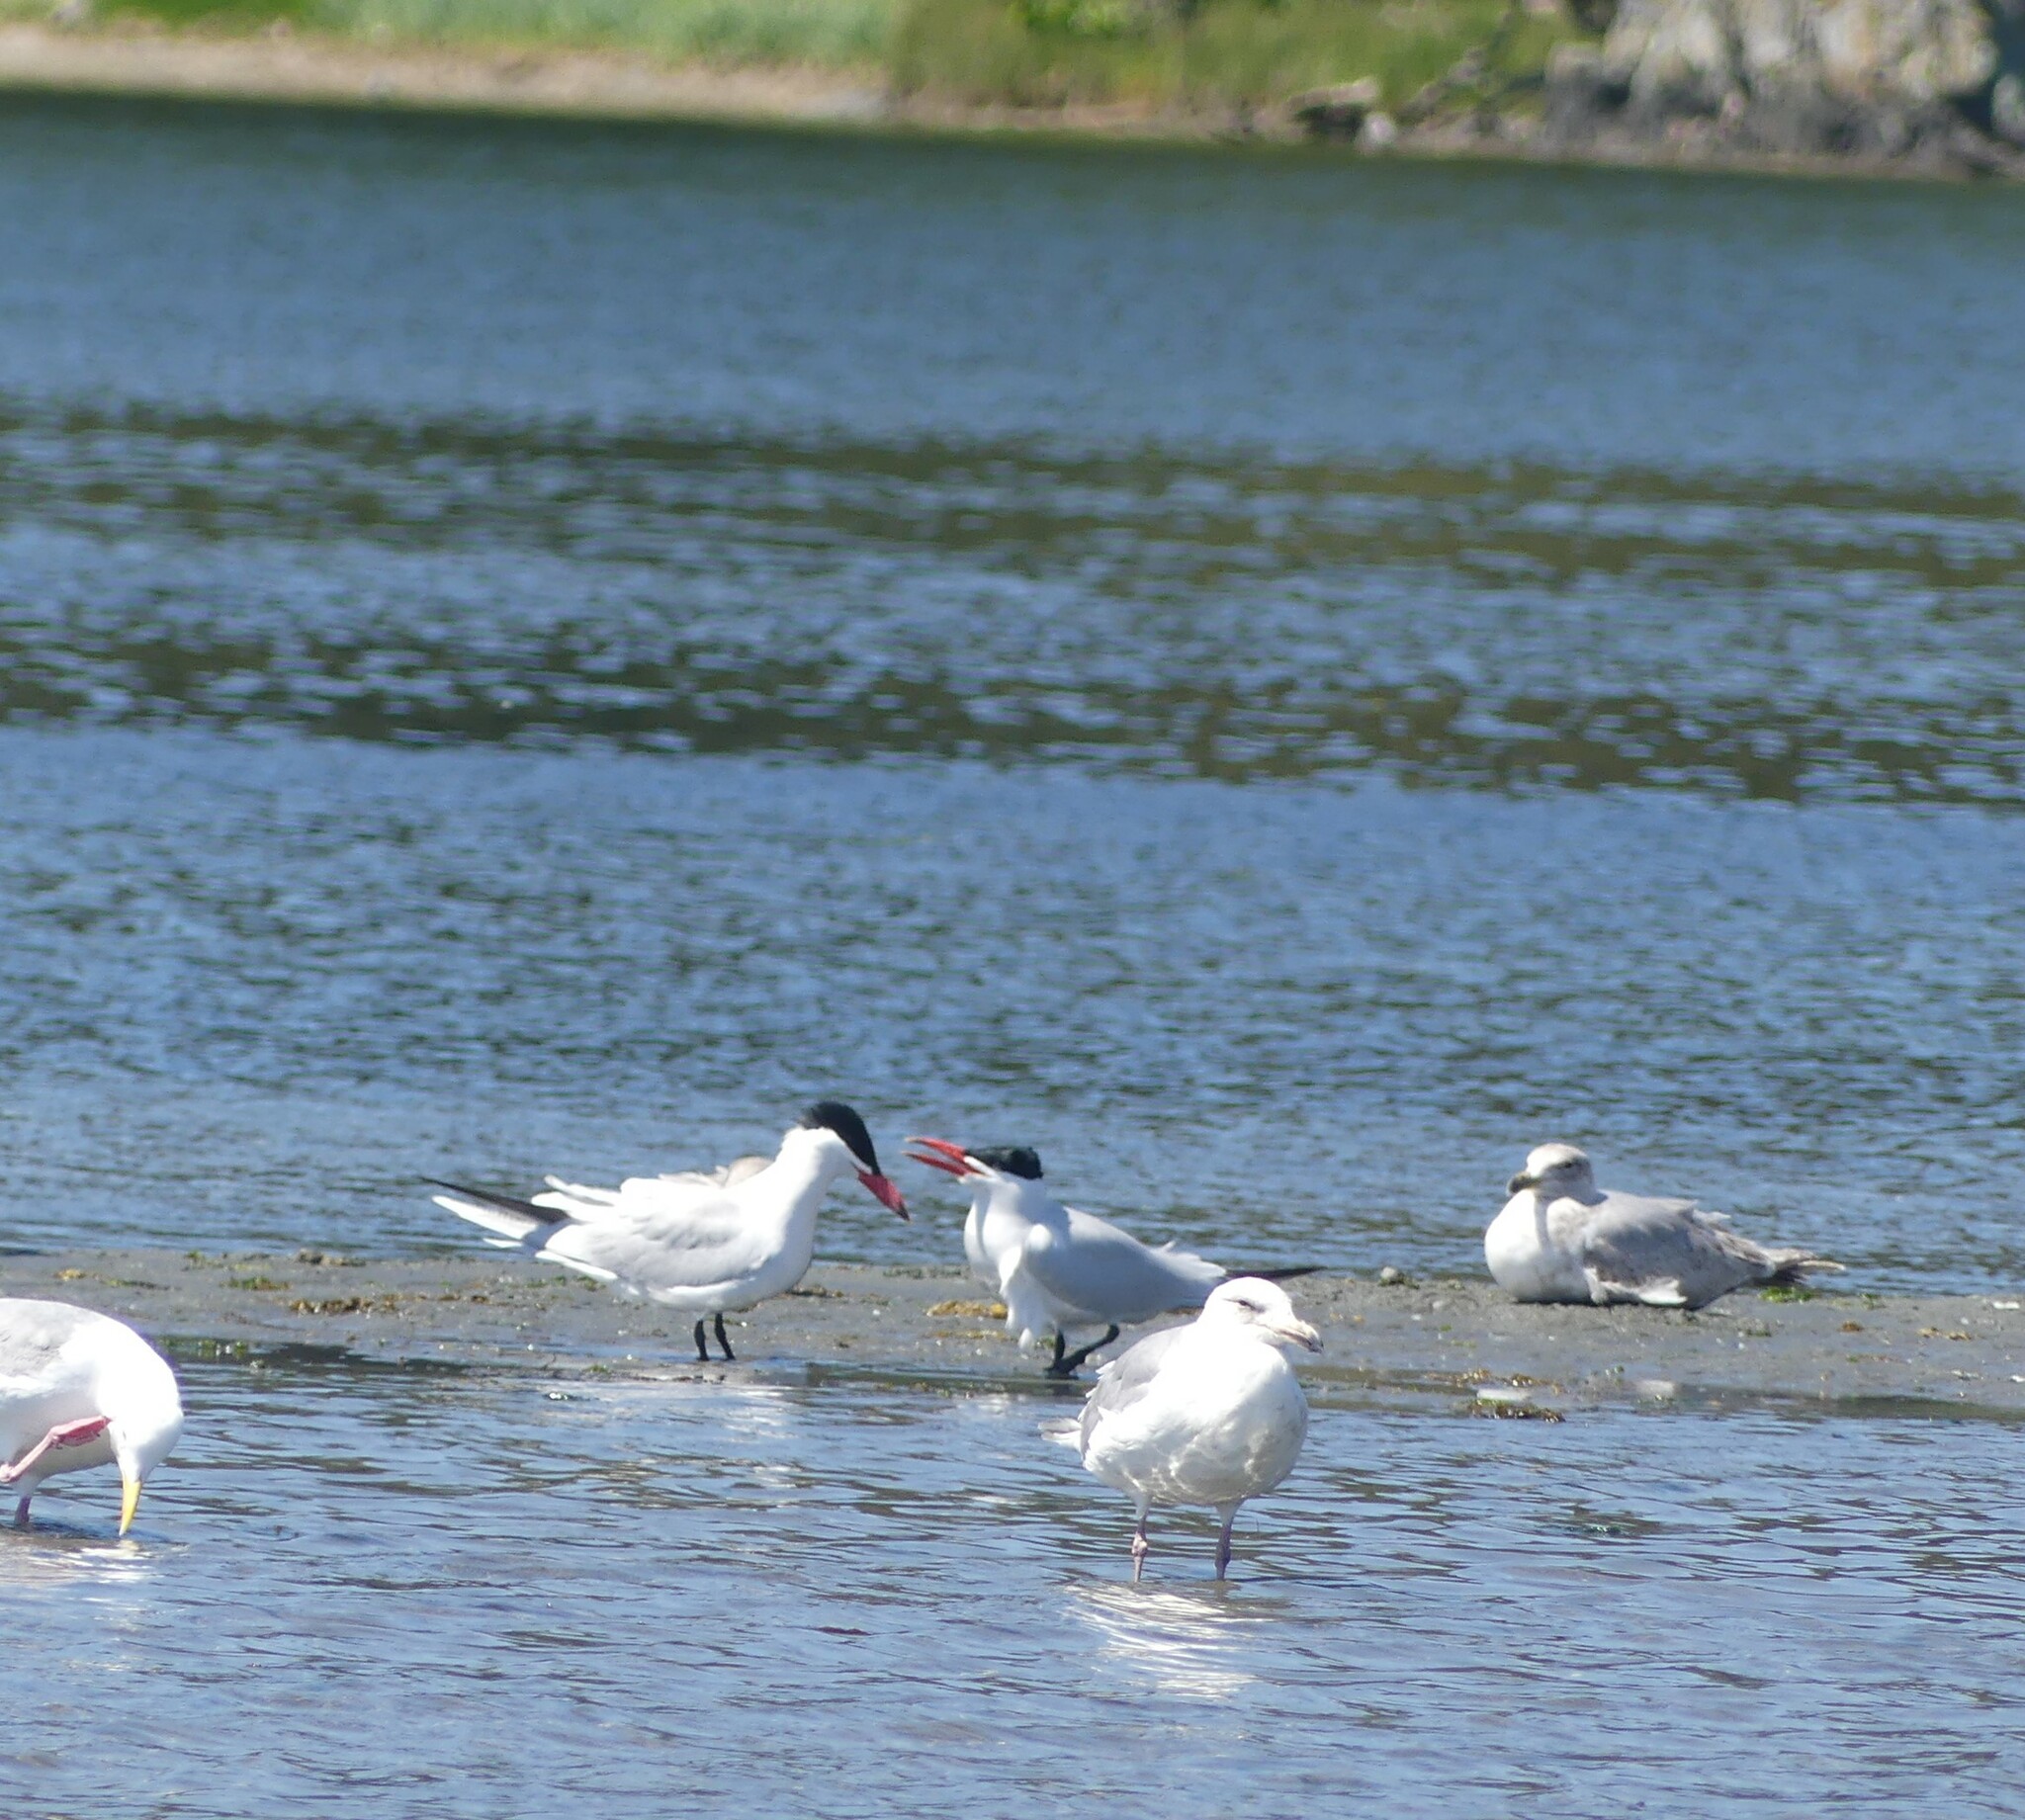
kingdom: Animalia
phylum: Chordata
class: Aves
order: Charadriiformes
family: Laridae
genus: Hydroprogne
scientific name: Hydroprogne caspia
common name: Caspian tern
